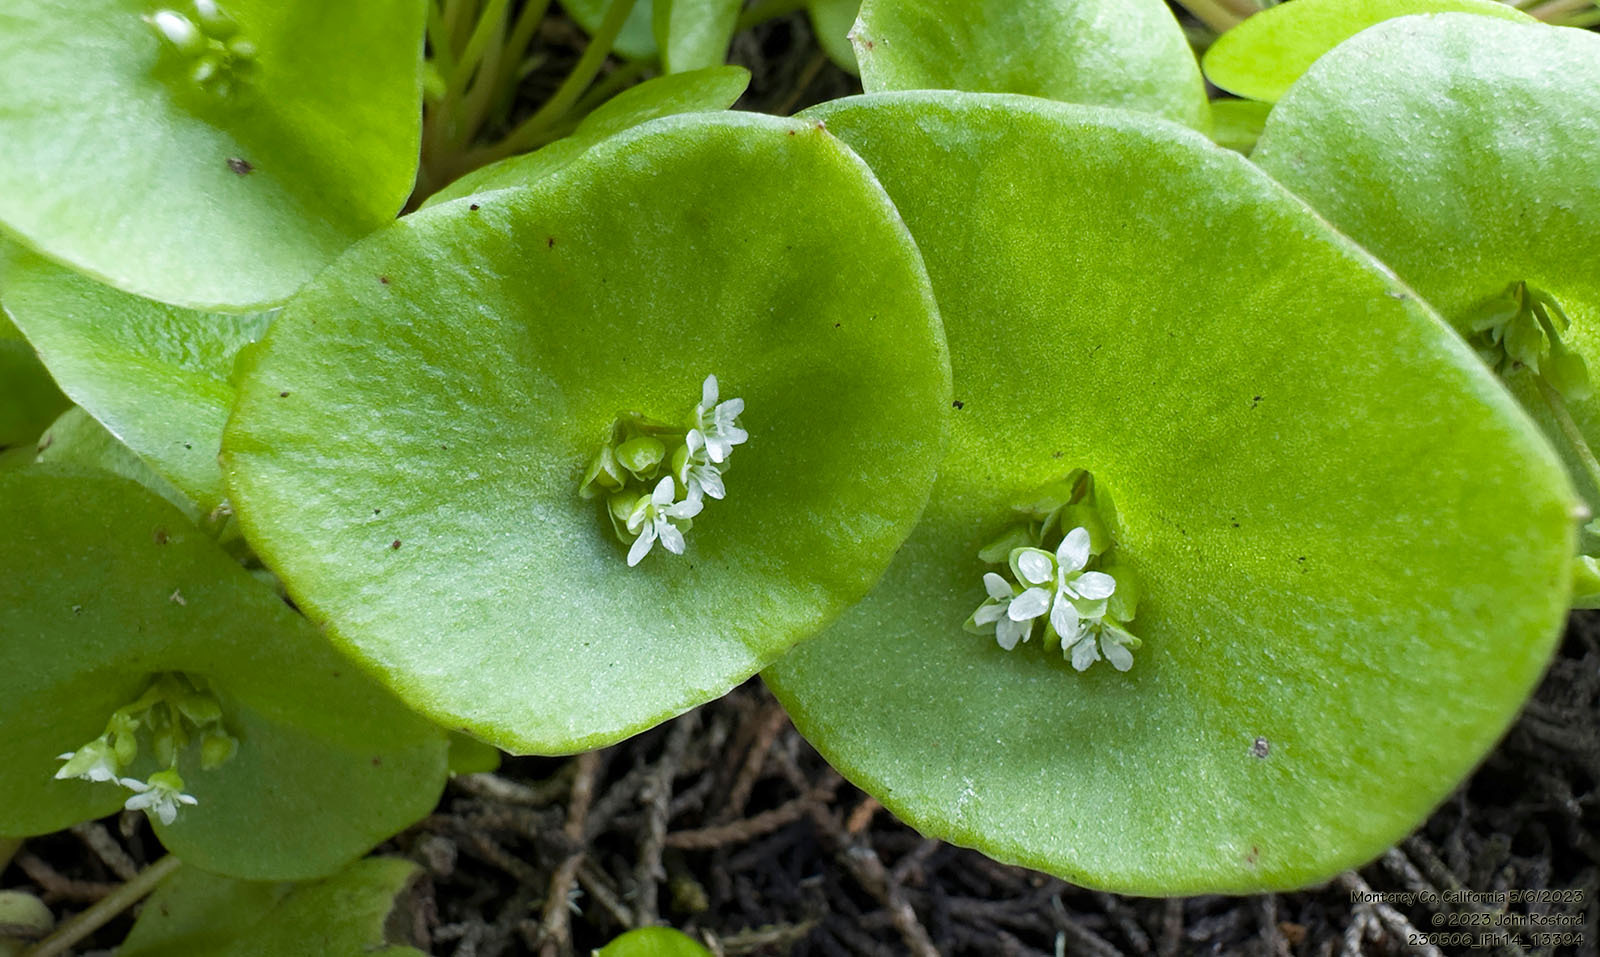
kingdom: Plantae
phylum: Tracheophyta
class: Magnoliopsida
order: Caryophyllales
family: Montiaceae
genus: Claytonia
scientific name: Claytonia perfoliata
